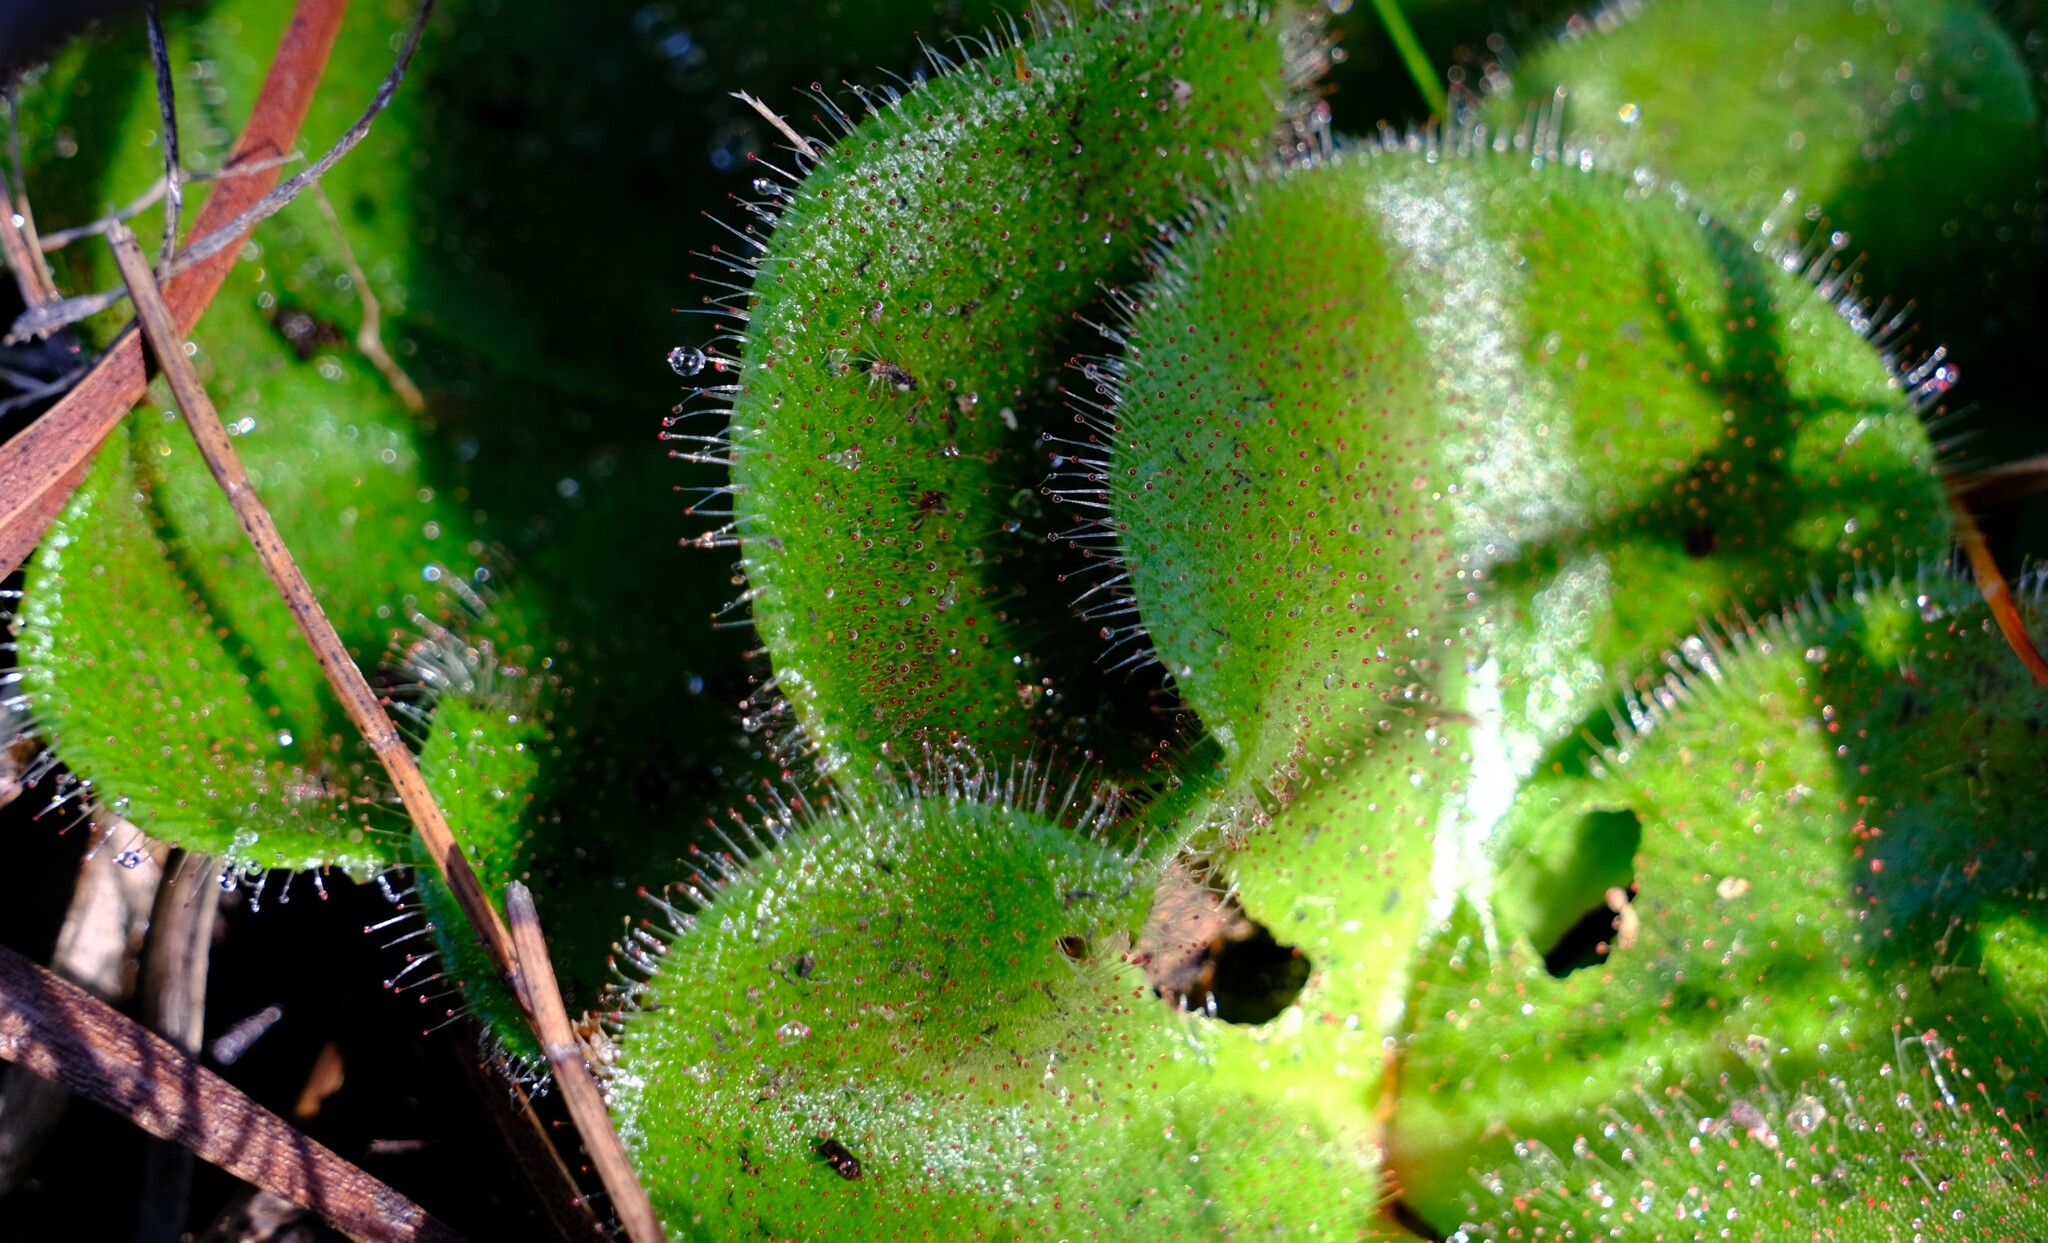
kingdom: Plantae
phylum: Tracheophyta
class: Magnoliopsida
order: Caryophyllales
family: Droseraceae
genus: Drosera
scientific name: Drosera erythrorhiza
